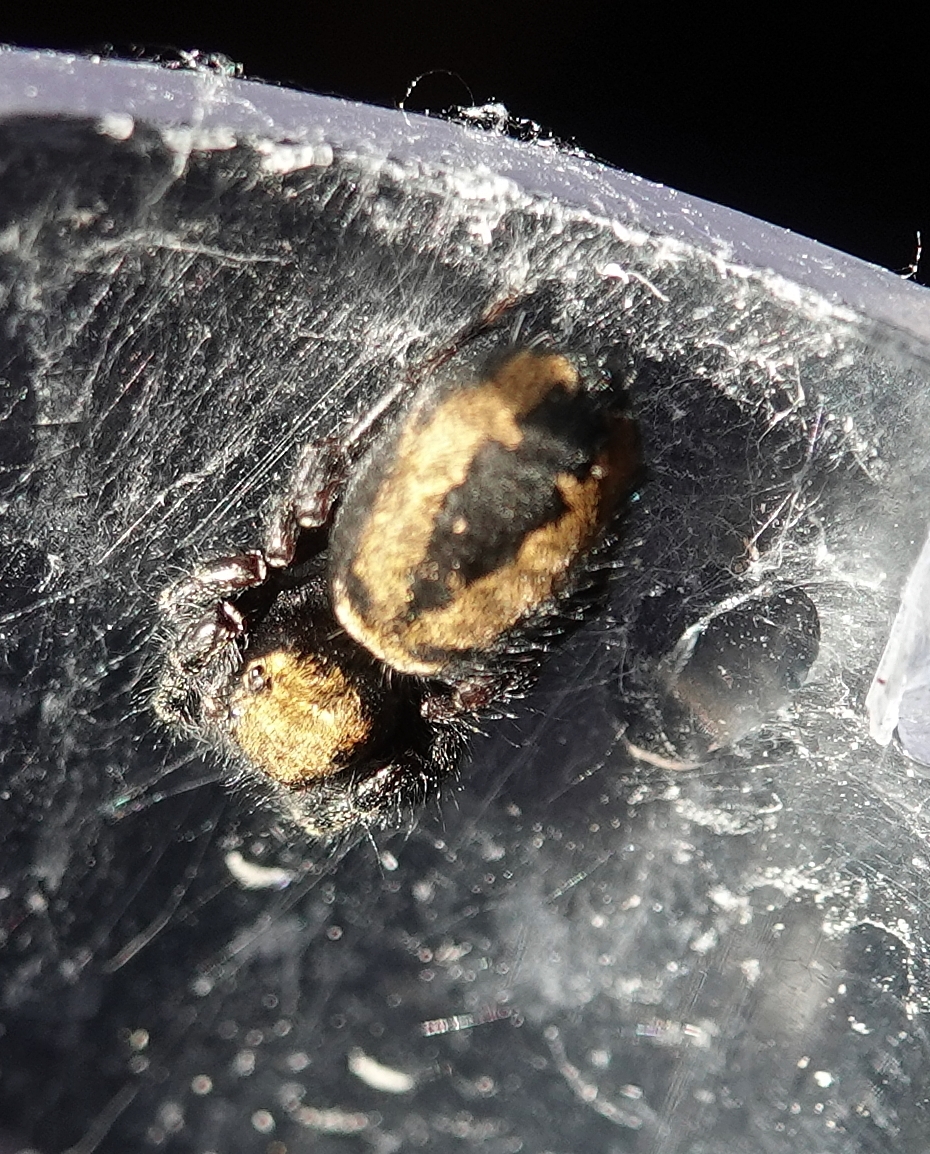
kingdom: Animalia
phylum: Arthropoda
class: Arachnida
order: Araneae
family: Salticidae
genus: Phidippus
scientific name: Phidippus apacheanus
